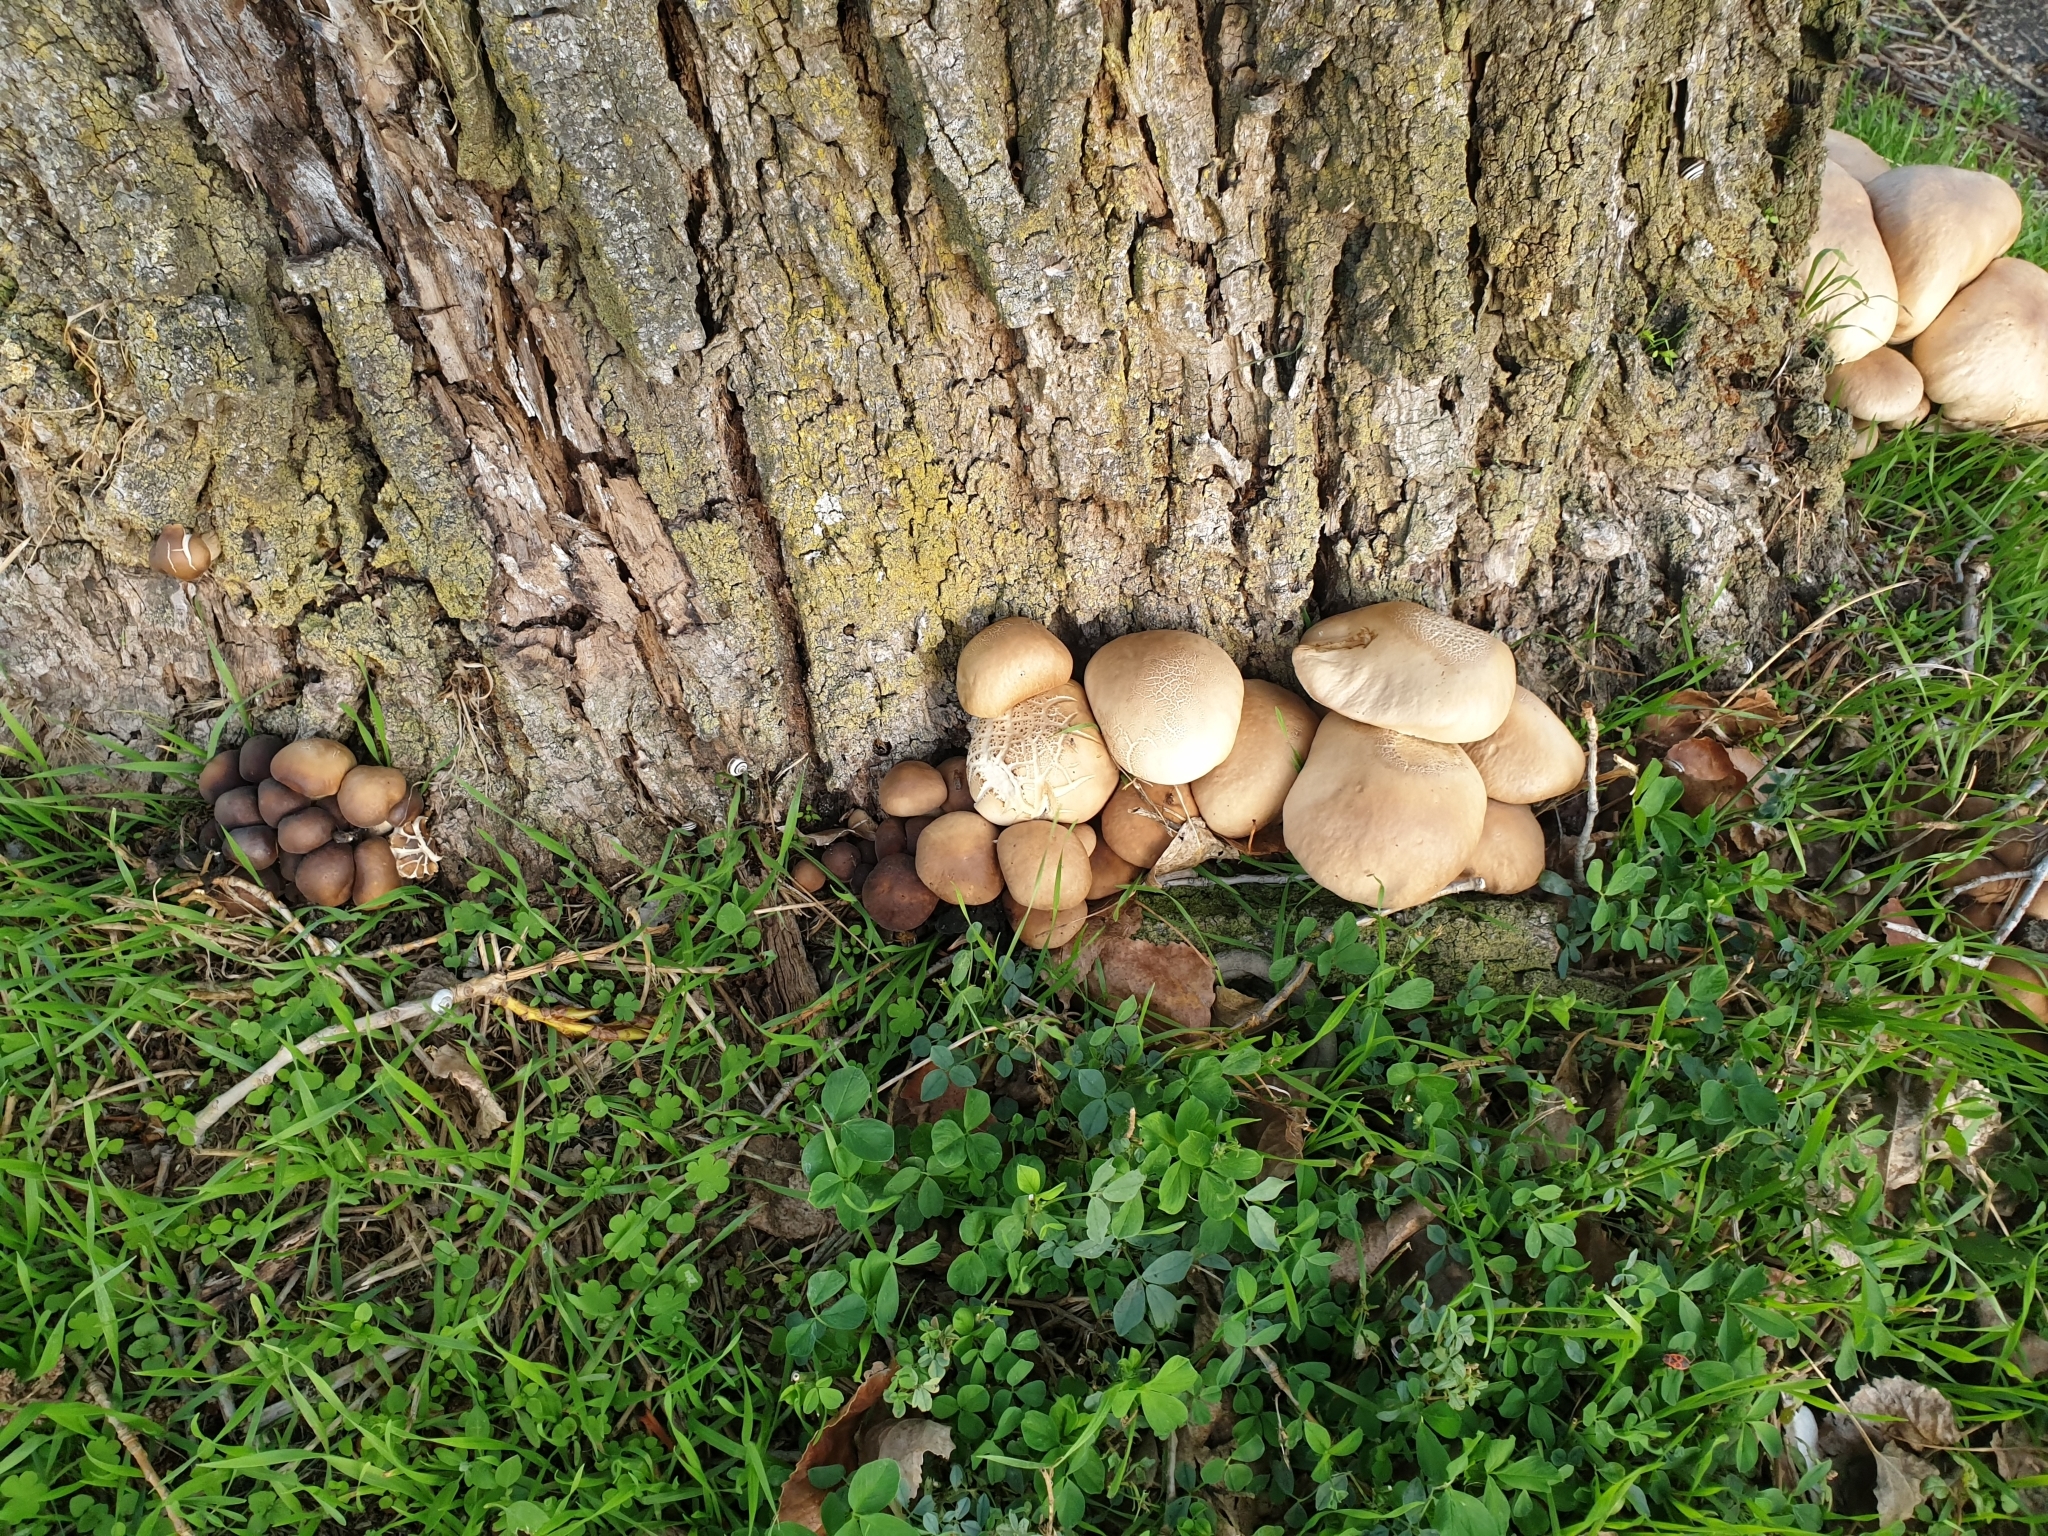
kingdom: Fungi
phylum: Basidiomycota
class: Agaricomycetes
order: Agaricales
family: Tubariaceae
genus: Cyclocybe
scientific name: Cyclocybe cylindracea
